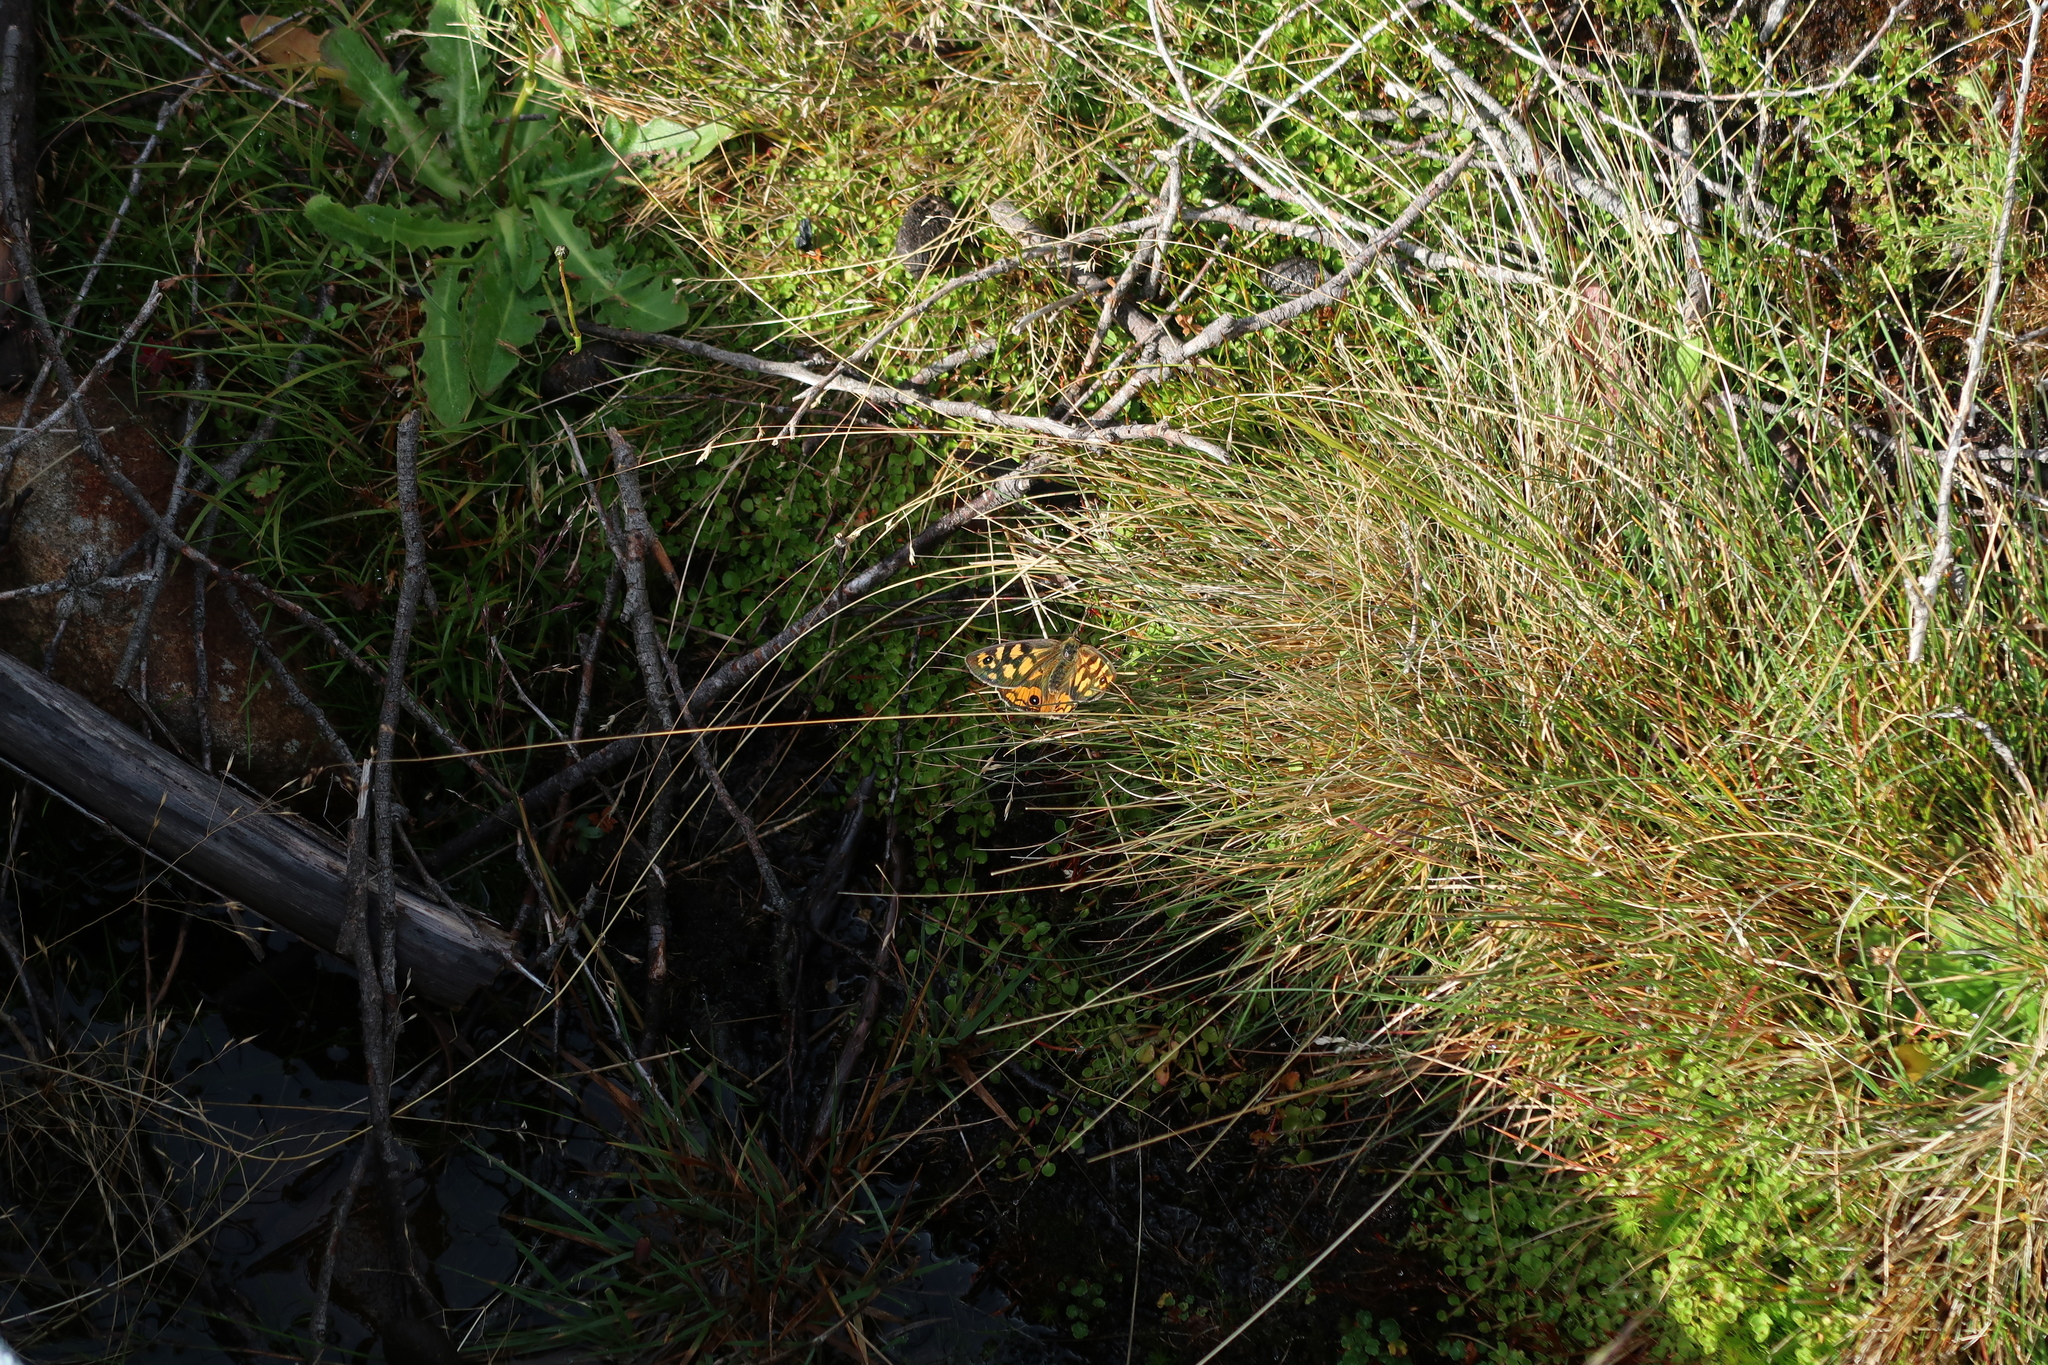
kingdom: Animalia
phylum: Arthropoda
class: Insecta
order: Lepidoptera
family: Nymphalidae
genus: Heteronympha
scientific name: Heteronympha penelope
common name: Shouldered brown
